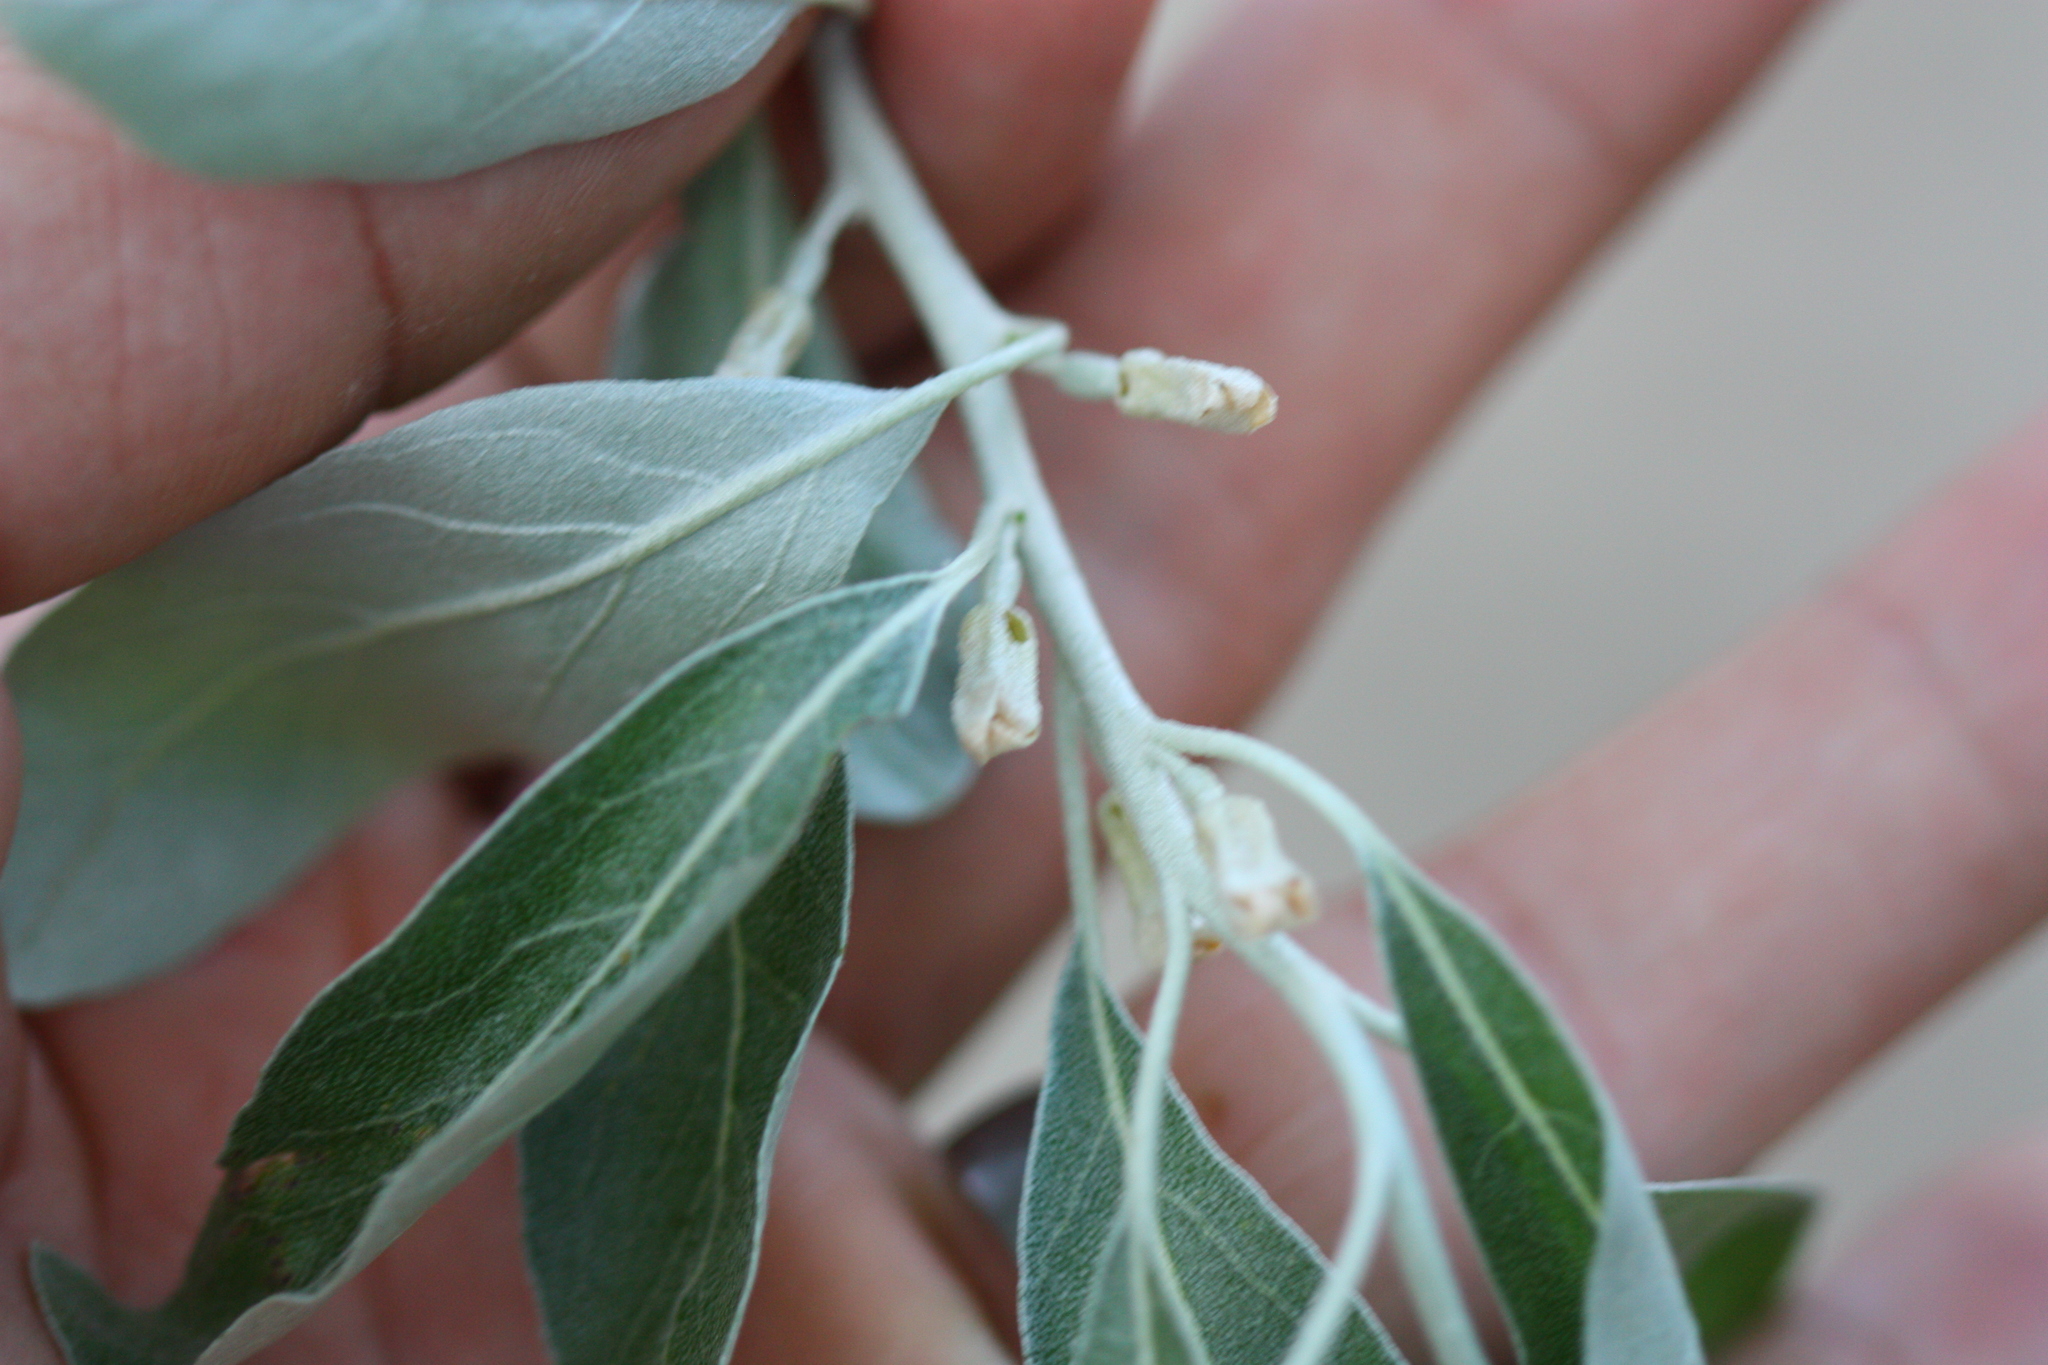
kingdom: Plantae
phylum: Tracheophyta
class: Magnoliopsida
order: Rosales
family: Elaeagnaceae
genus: Elaeagnus
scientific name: Elaeagnus angustifolia
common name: Russian olive
